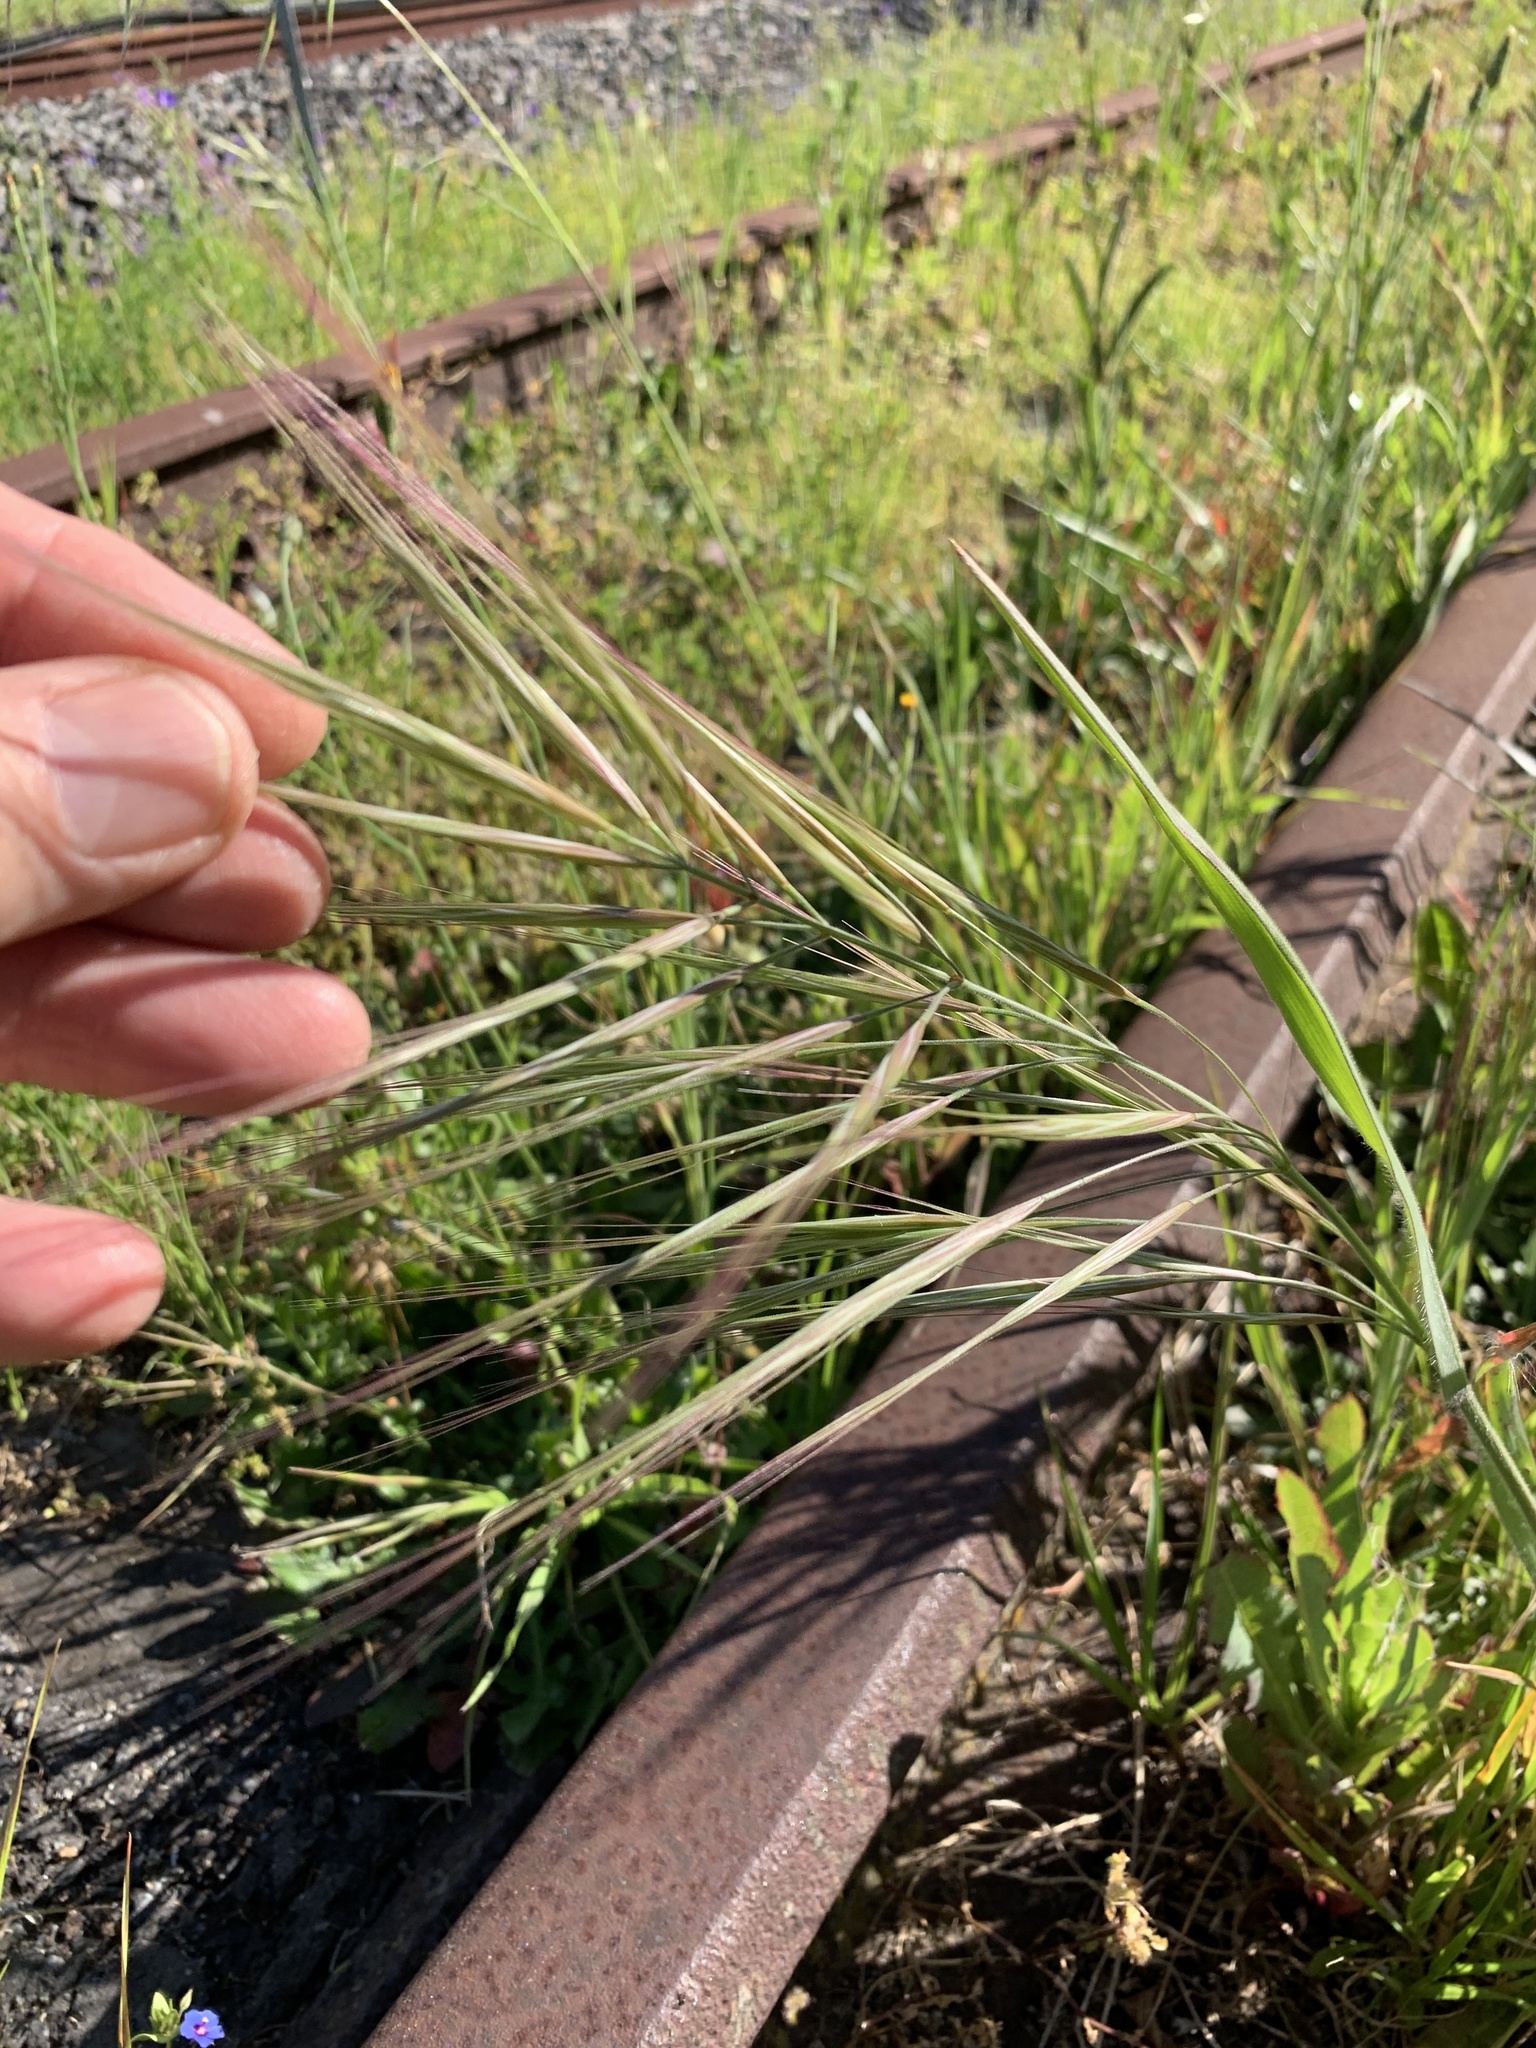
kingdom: Plantae
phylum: Tracheophyta
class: Liliopsida
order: Poales
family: Poaceae
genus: Bromus
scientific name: Bromus diandrus
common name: Ripgut brome
